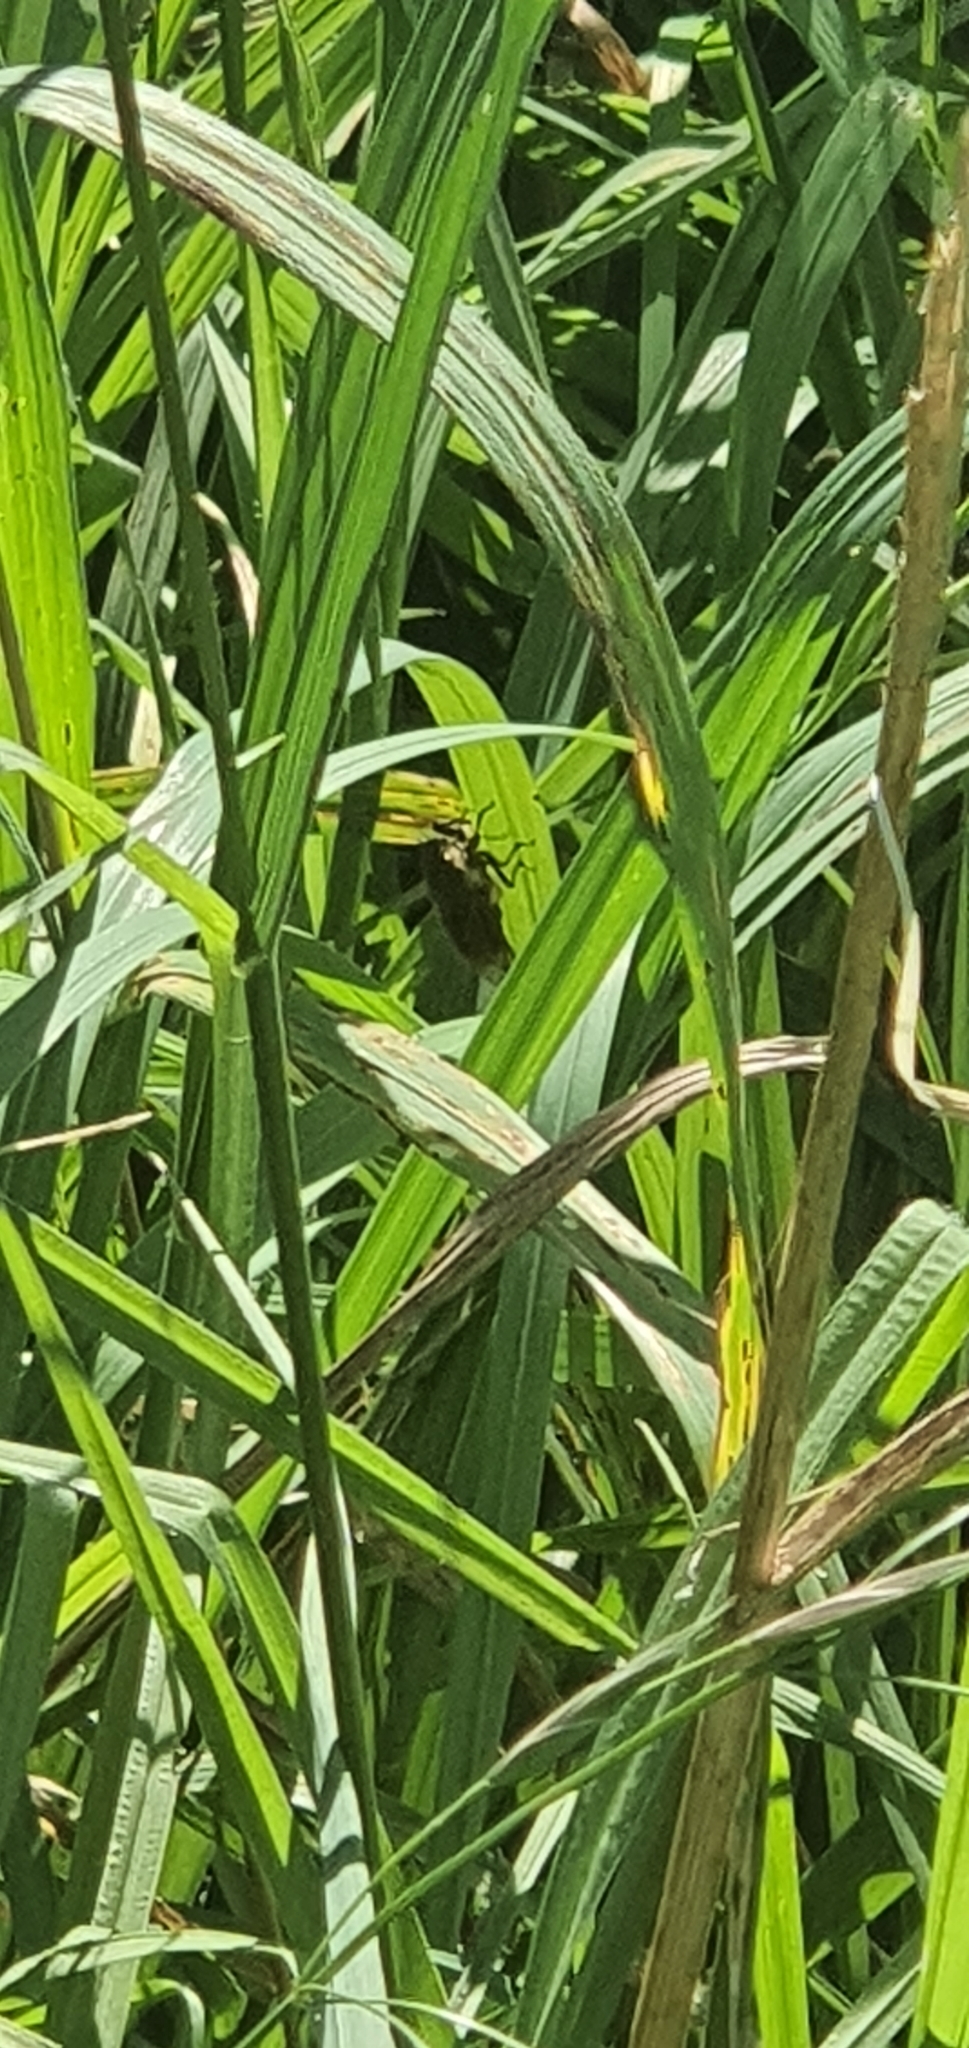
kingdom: Animalia
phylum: Arthropoda
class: Insecta
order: Hemiptera
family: Cicadidae
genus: Diemeniana
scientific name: Diemeniana frenchi
